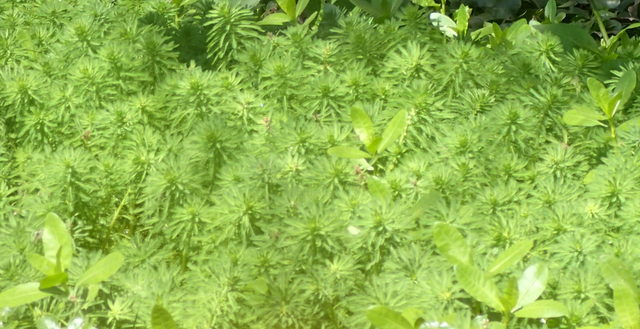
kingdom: Plantae
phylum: Tracheophyta
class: Magnoliopsida
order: Saxifragales
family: Haloragaceae
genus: Myriophyllum
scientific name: Myriophyllum aquaticum
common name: Parrot's feather
